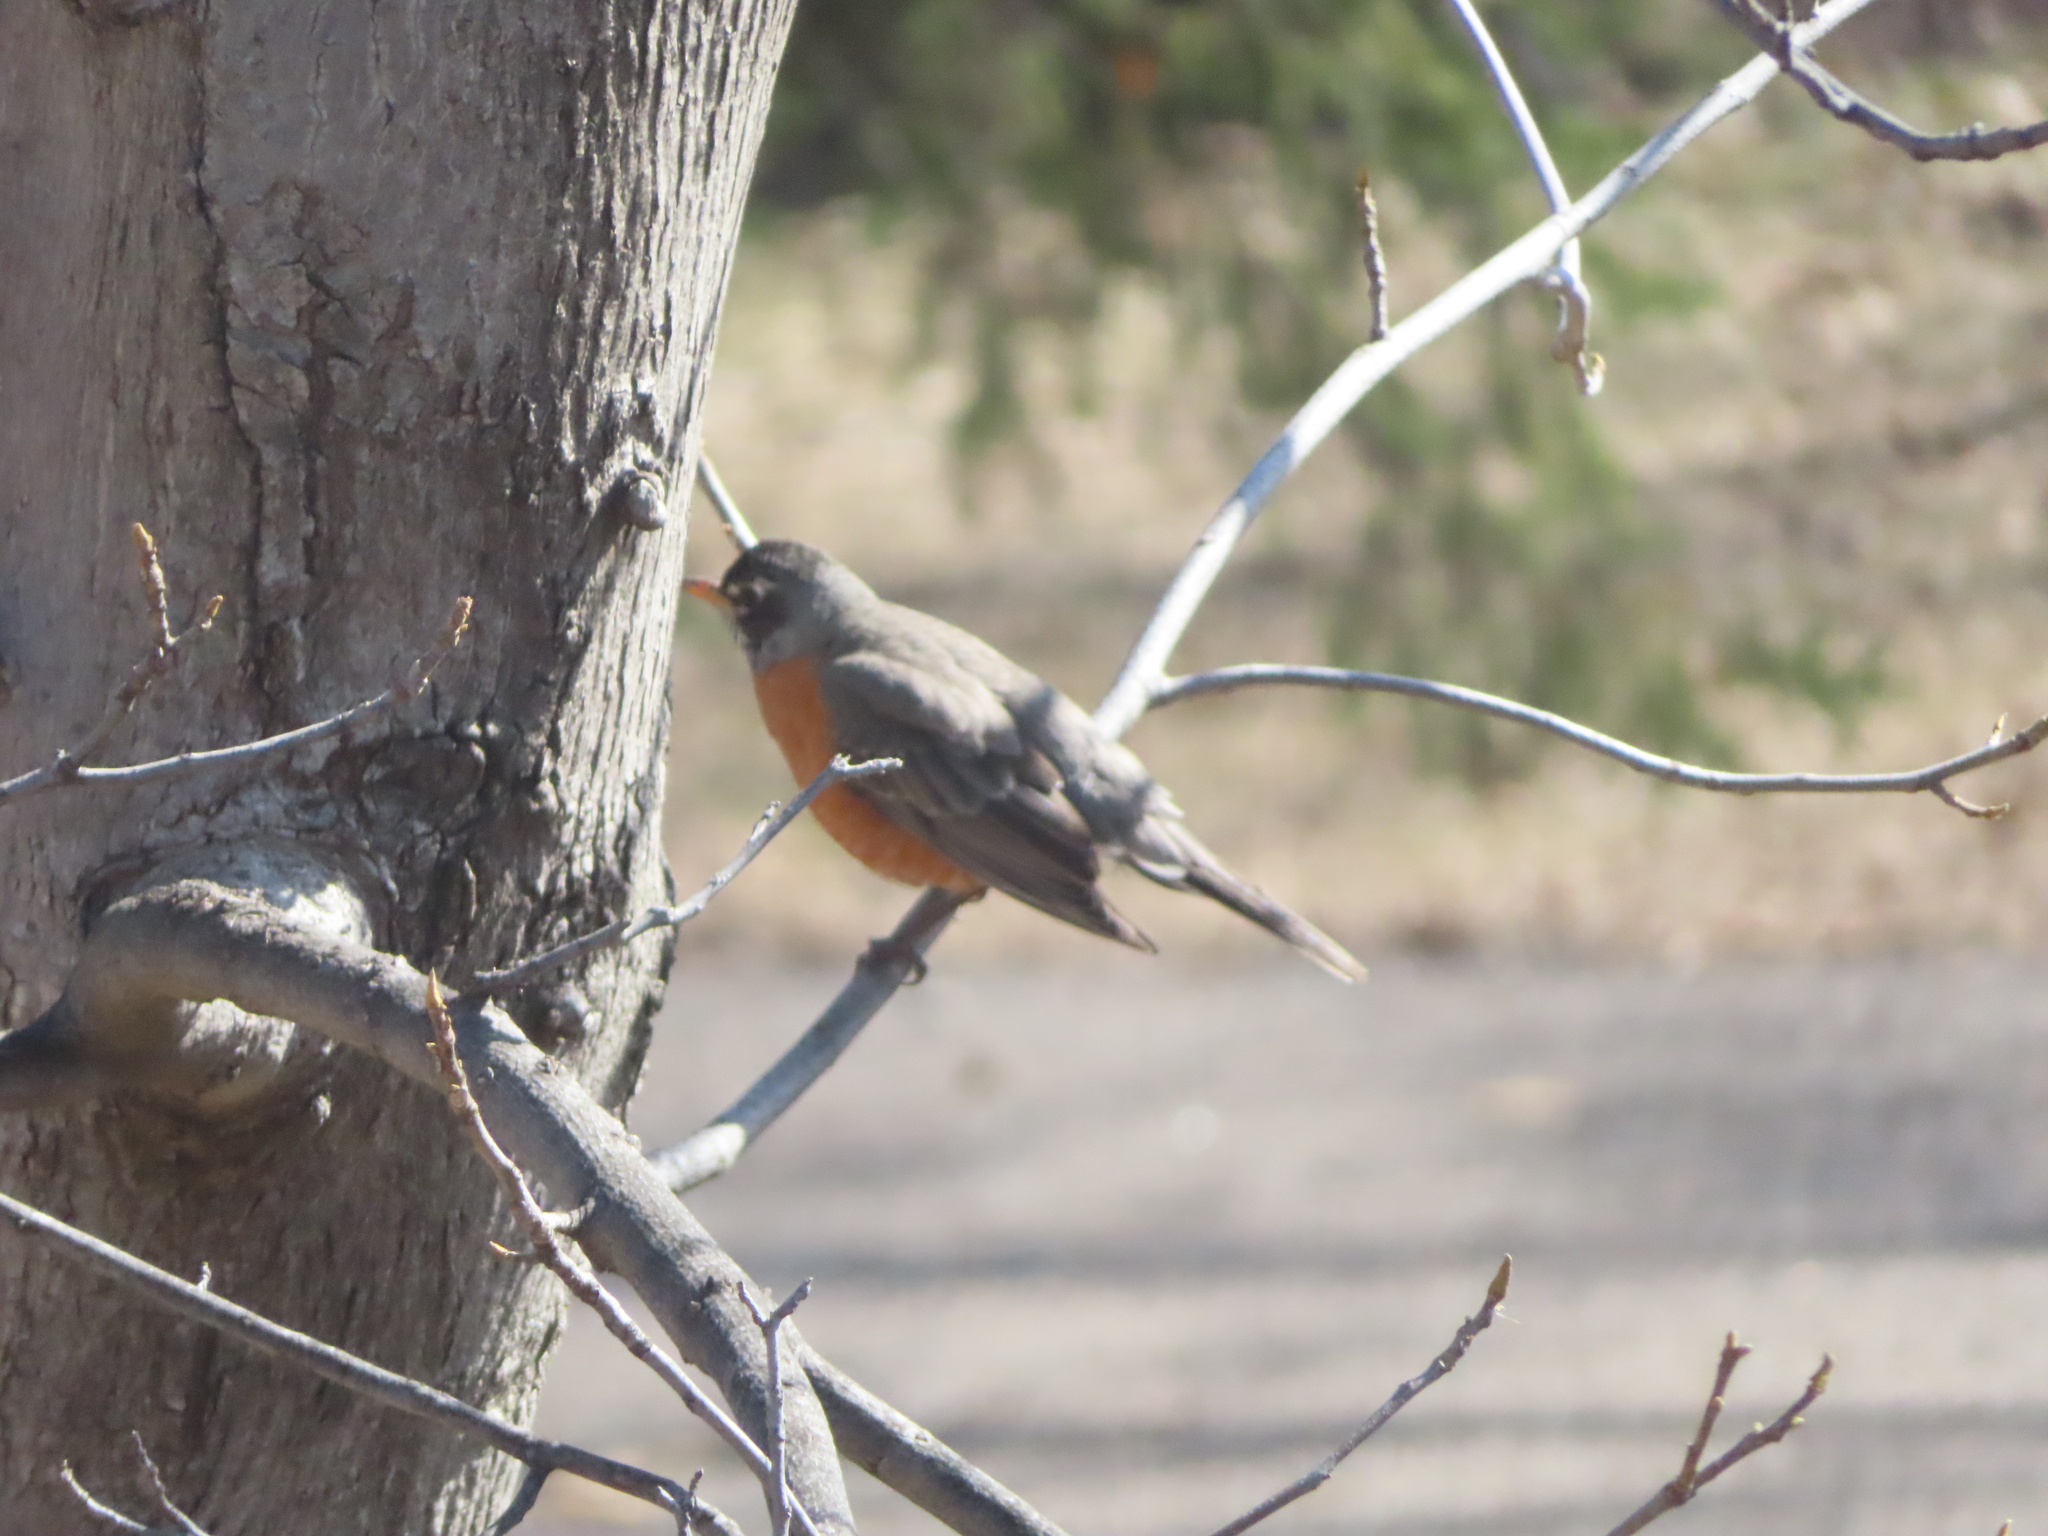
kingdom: Animalia
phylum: Chordata
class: Aves
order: Passeriformes
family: Turdidae
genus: Turdus
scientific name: Turdus migratorius
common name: American robin
